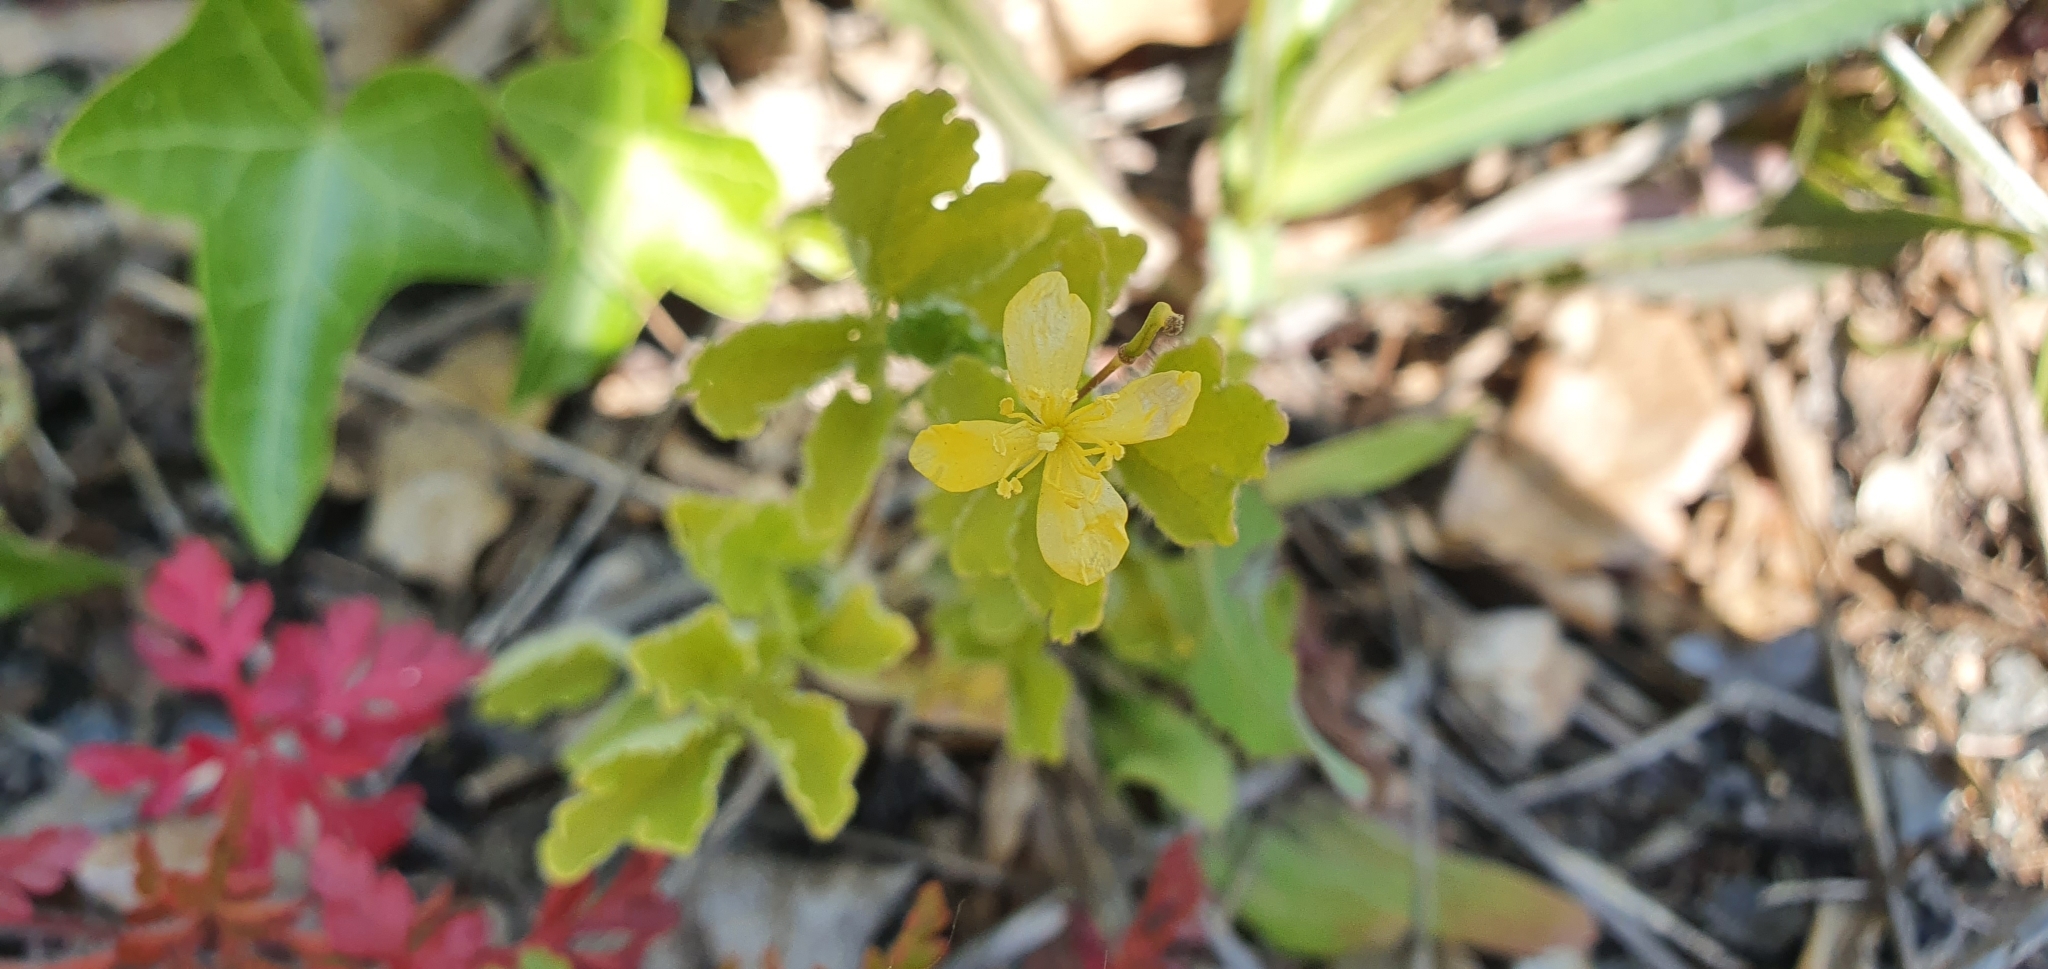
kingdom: Plantae
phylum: Tracheophyta
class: Magnoliopsida
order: Ranunculales
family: Papaveraceae
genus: Chelidonium
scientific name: Chelidonium majus
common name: Greater celandine
